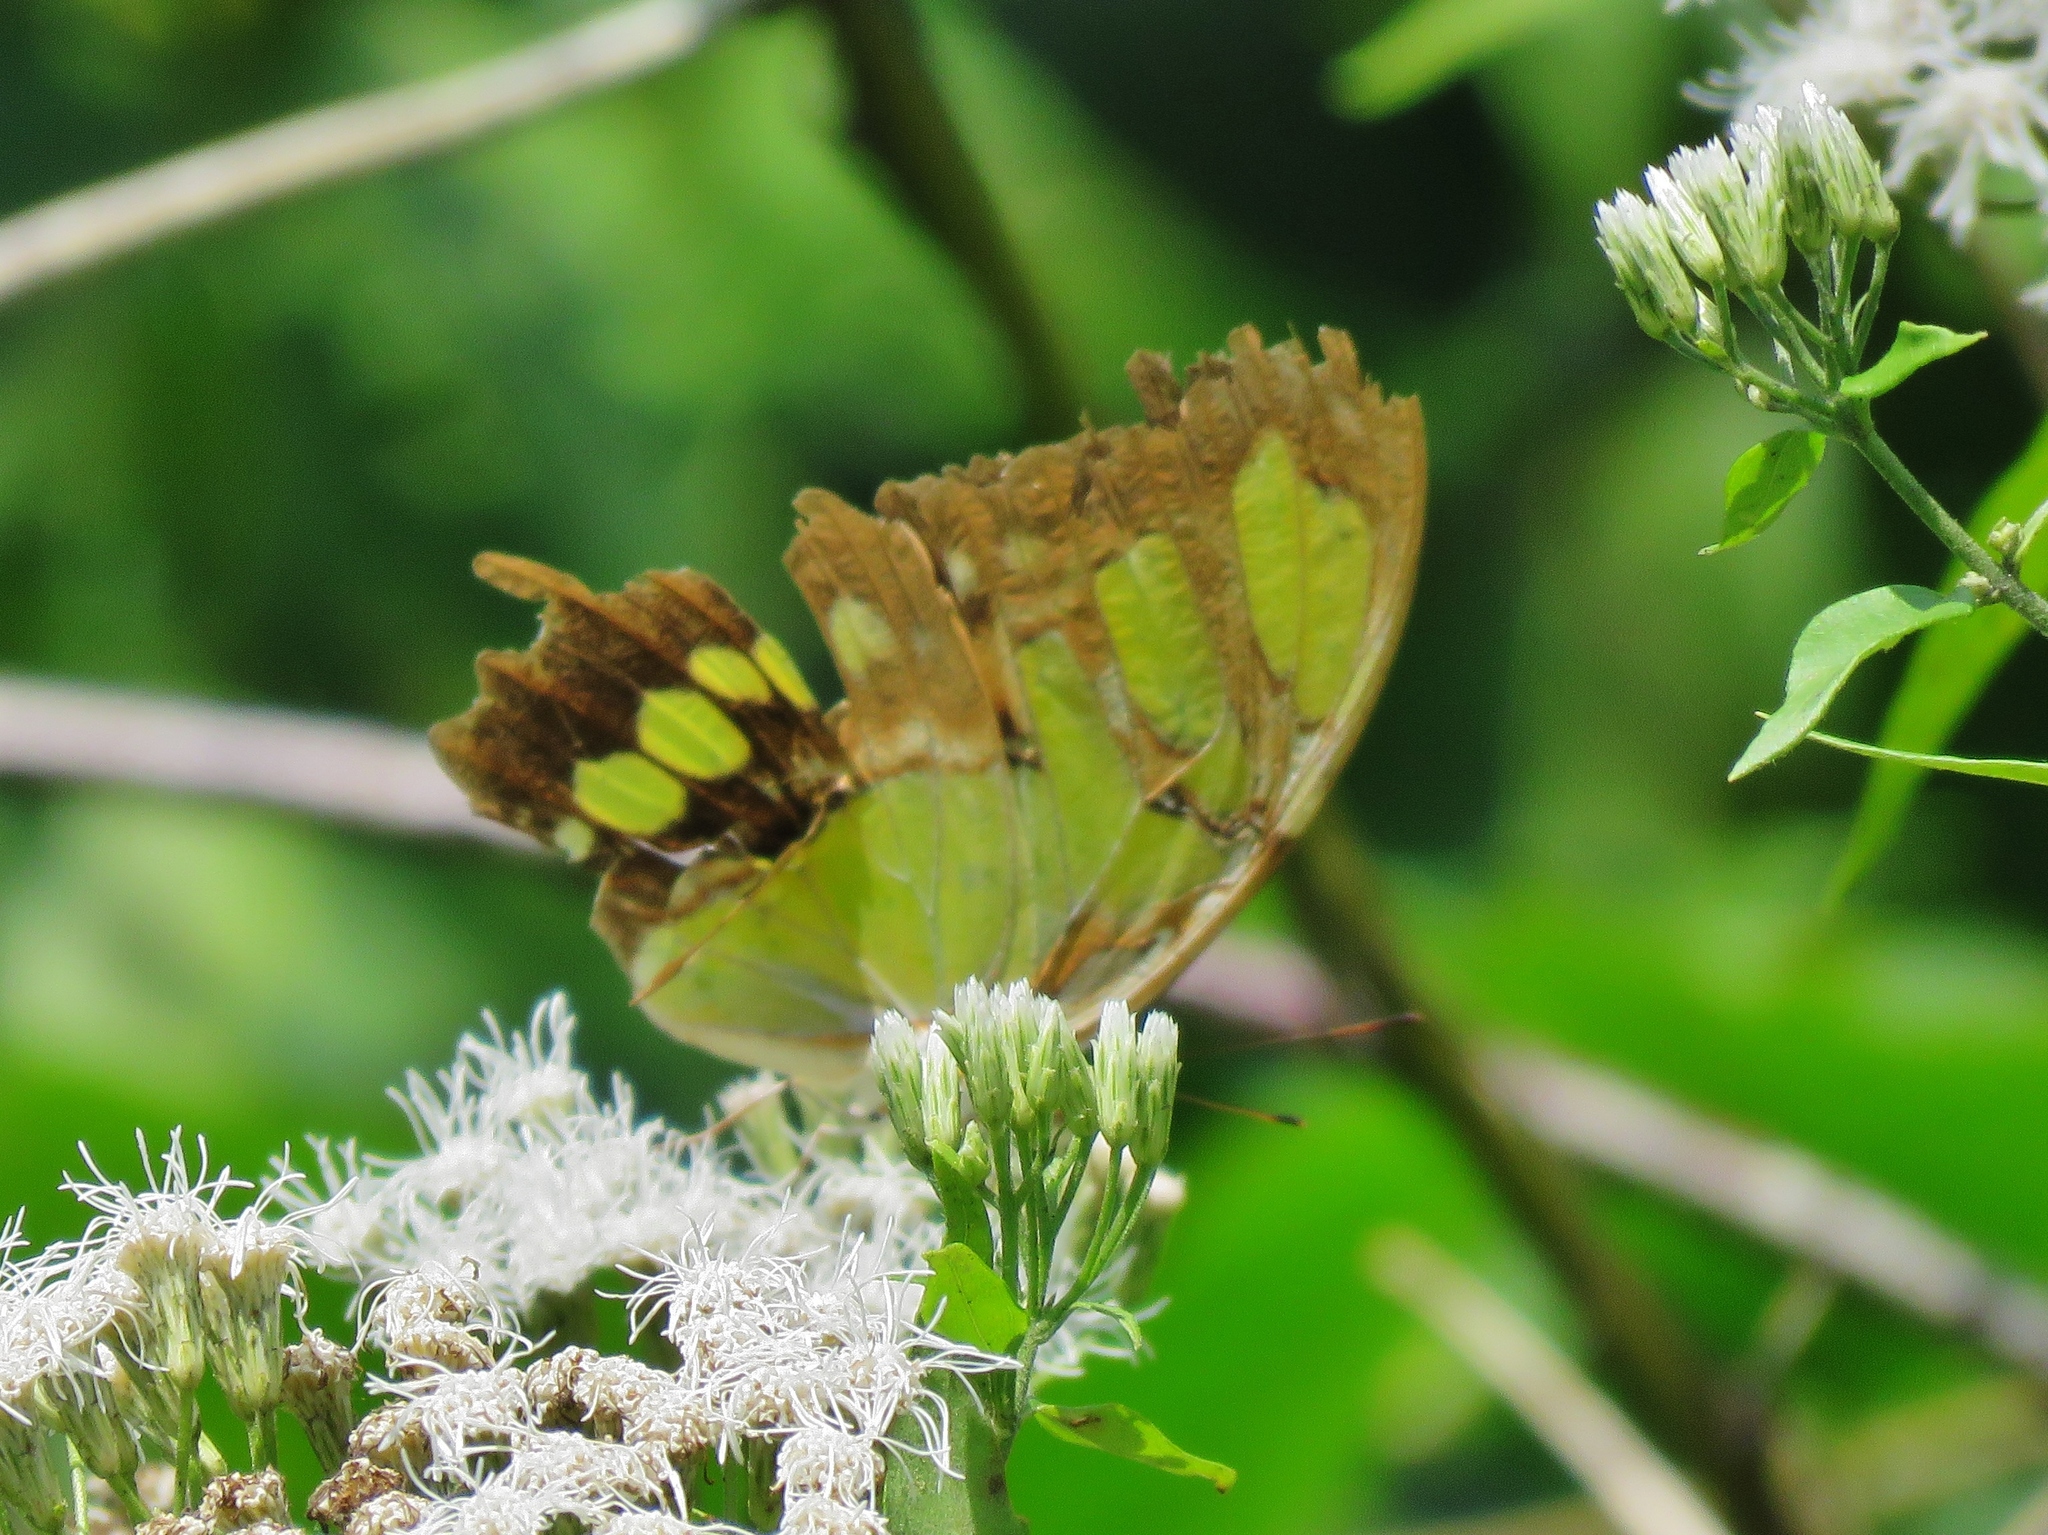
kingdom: Animalia
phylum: Arthropoda
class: Insecta
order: Lepidoptera
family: Nymphalidae
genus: Siproeta
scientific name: Siproeta stelenes
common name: Malachite
